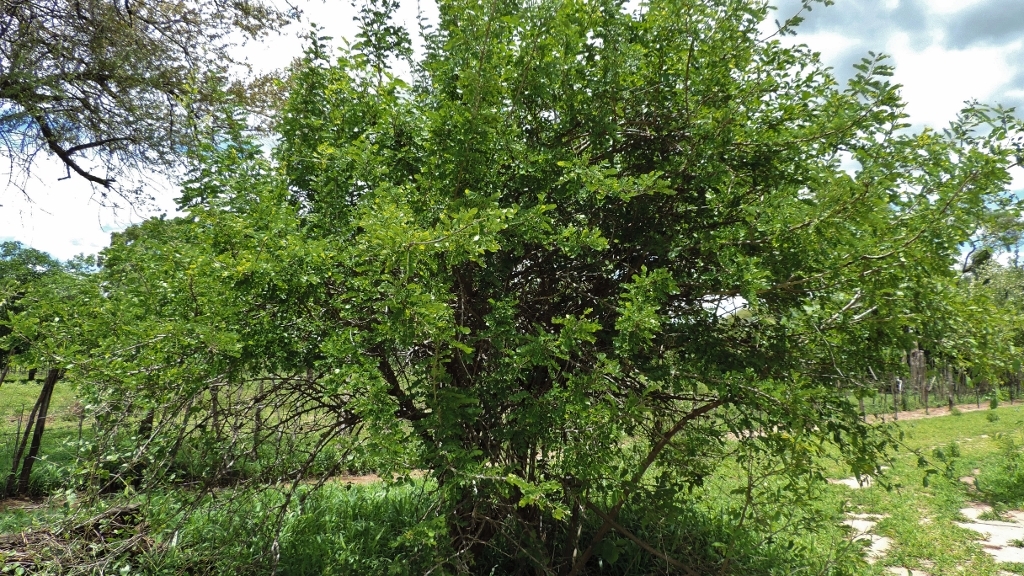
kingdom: Plantae
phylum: Tracheophyta
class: Magnoliopsida
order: Fabales
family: Fabaceae
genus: Dalbergia
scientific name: Dalbergia melanoxylon
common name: African blackwood
